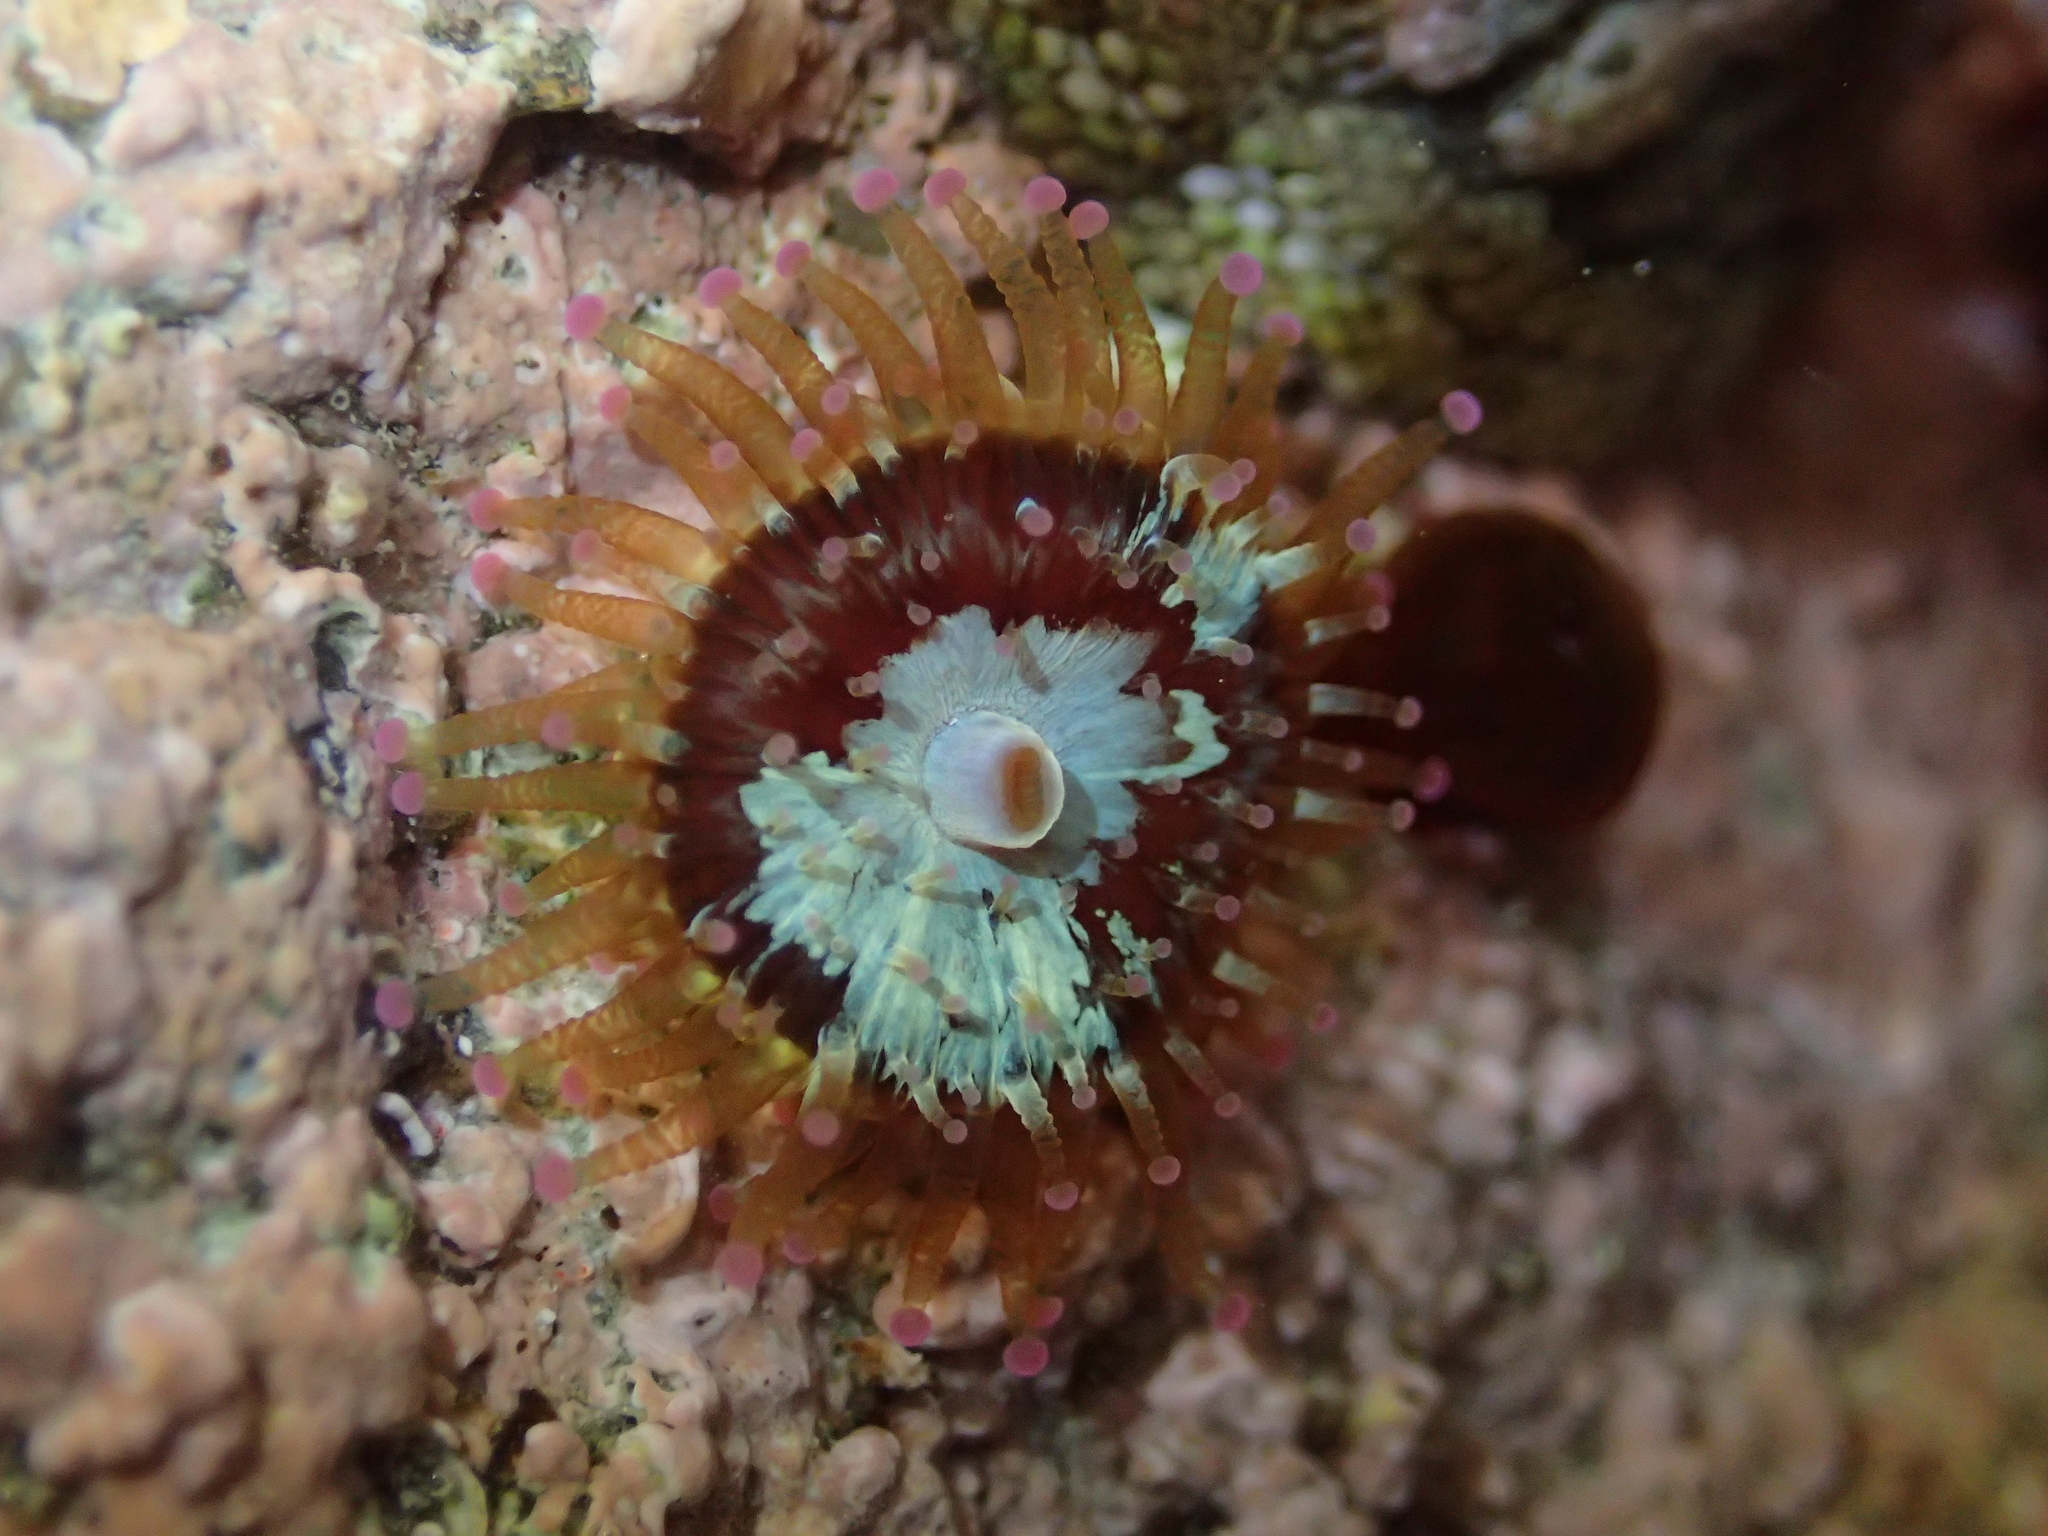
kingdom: Animalia
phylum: Cnidaria
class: Anthozoa
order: Corallimorpharia
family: Corallimorphidae
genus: Corynactis
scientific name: Corynactis australis
